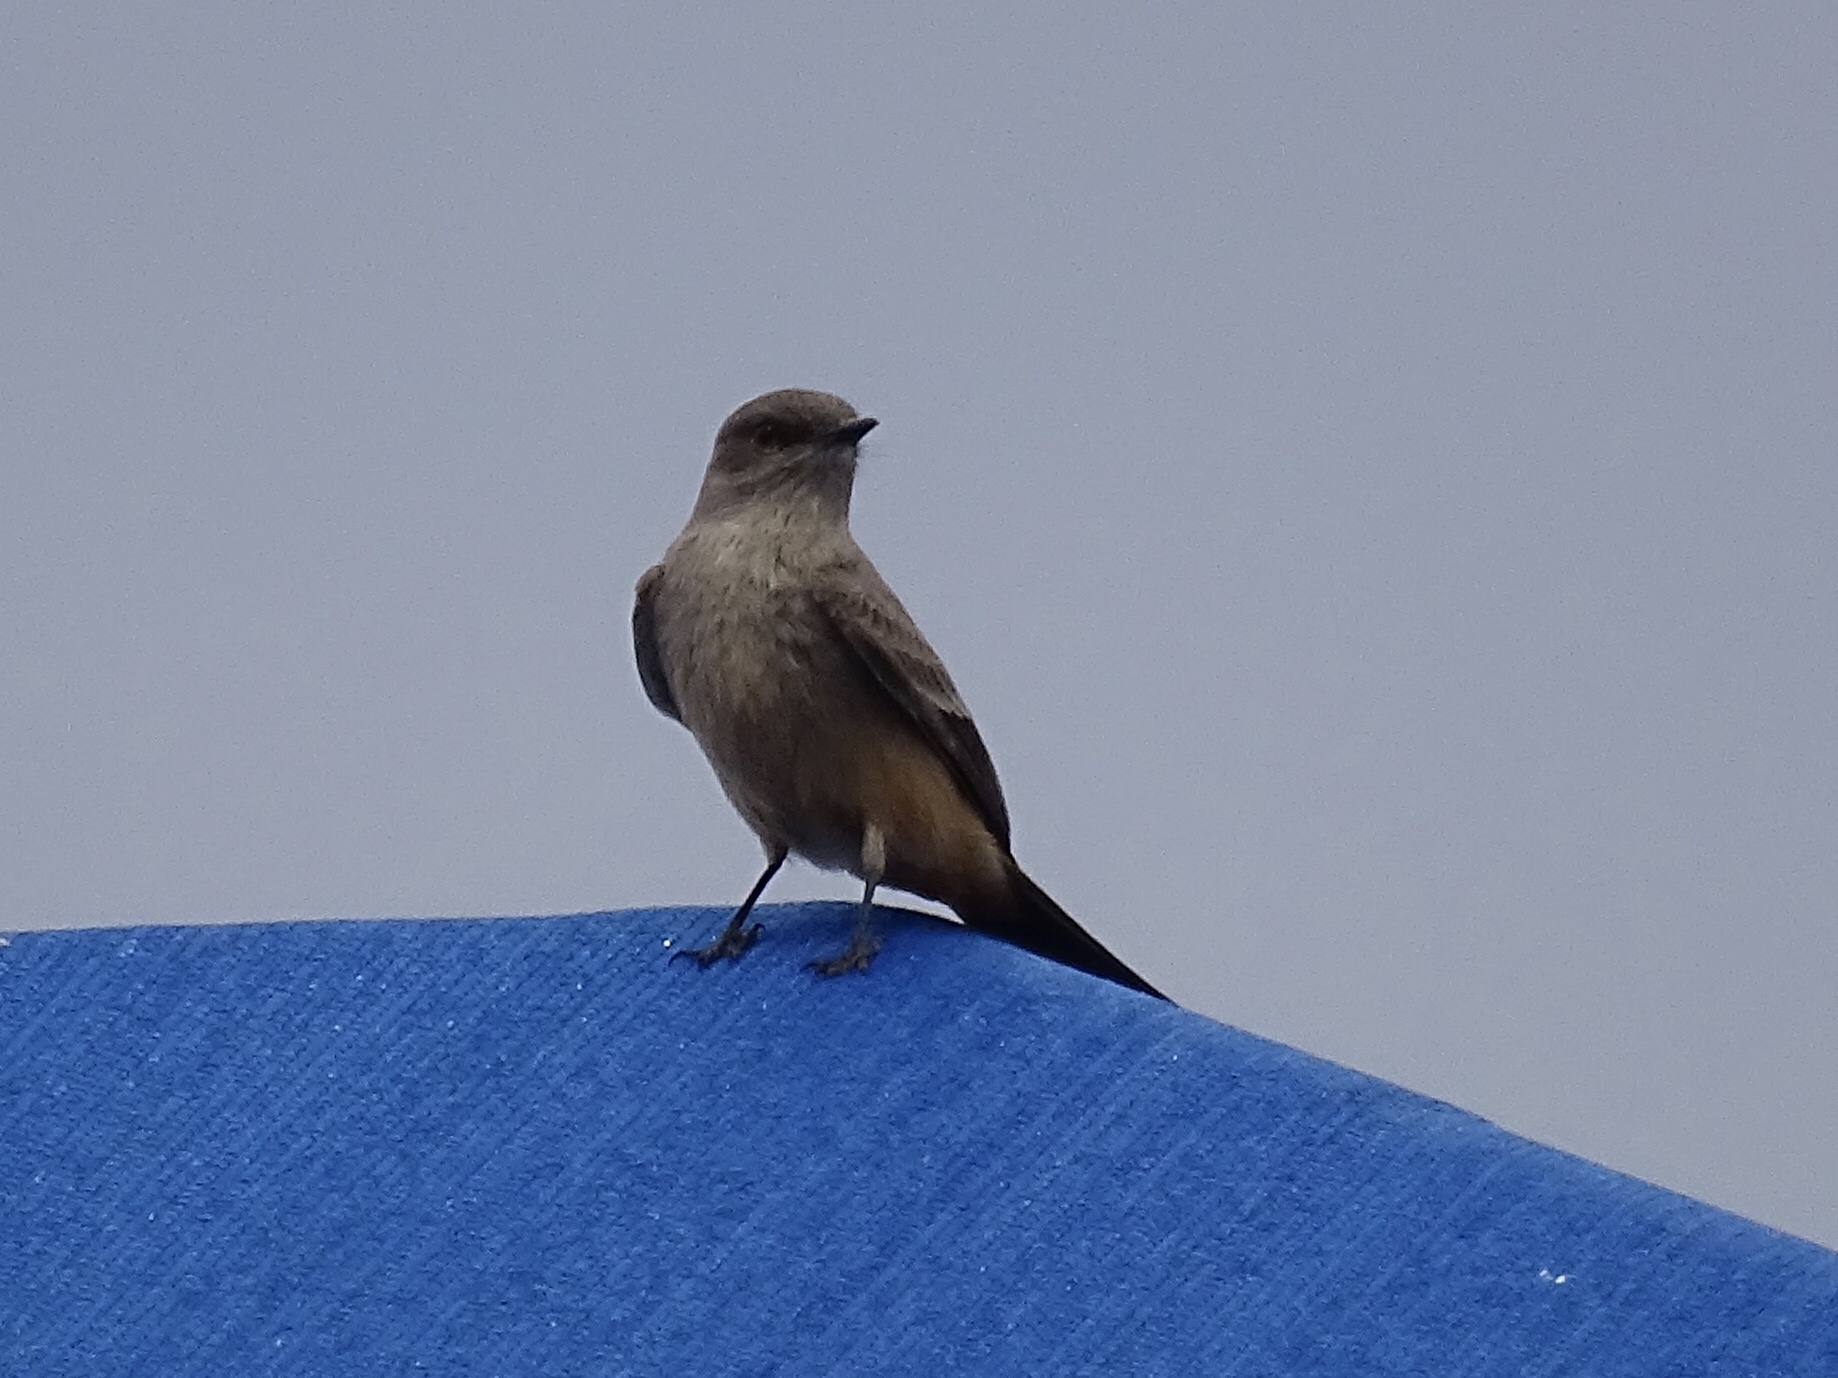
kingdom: Animalia
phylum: Chordata
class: Aves
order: Passeriformes
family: Tyrannidae
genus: Sayornis
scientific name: Sayornis saya
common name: Say's phoebe
